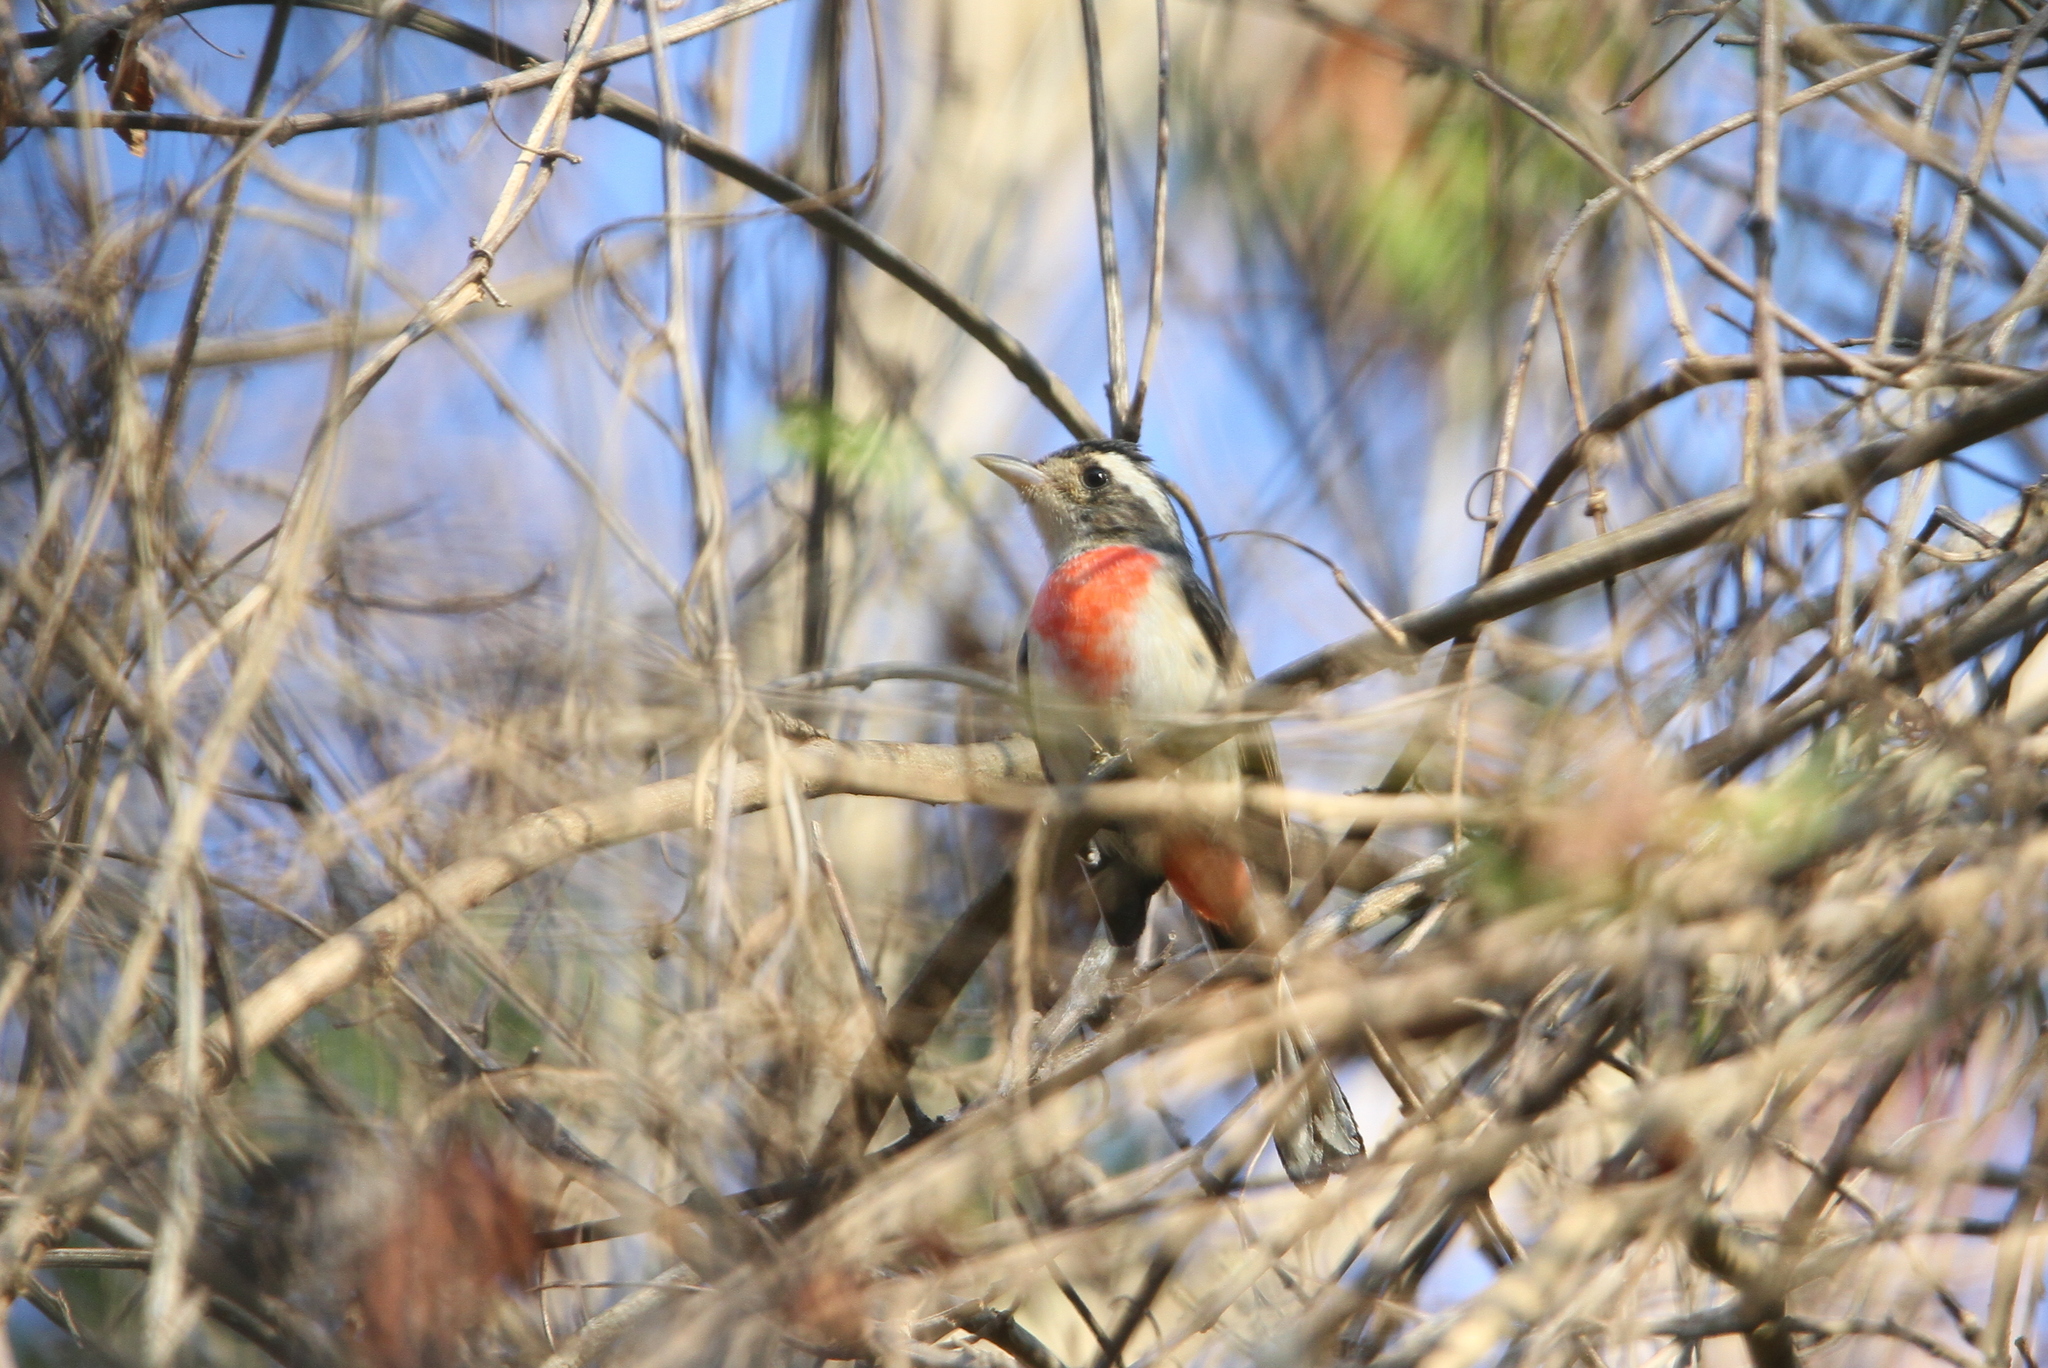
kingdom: Animalia
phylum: Chordata
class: Aves
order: Passeriformes
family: Cardinalidae
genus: Granatellus
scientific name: Granatellus venustus
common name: Red-breasted chat
